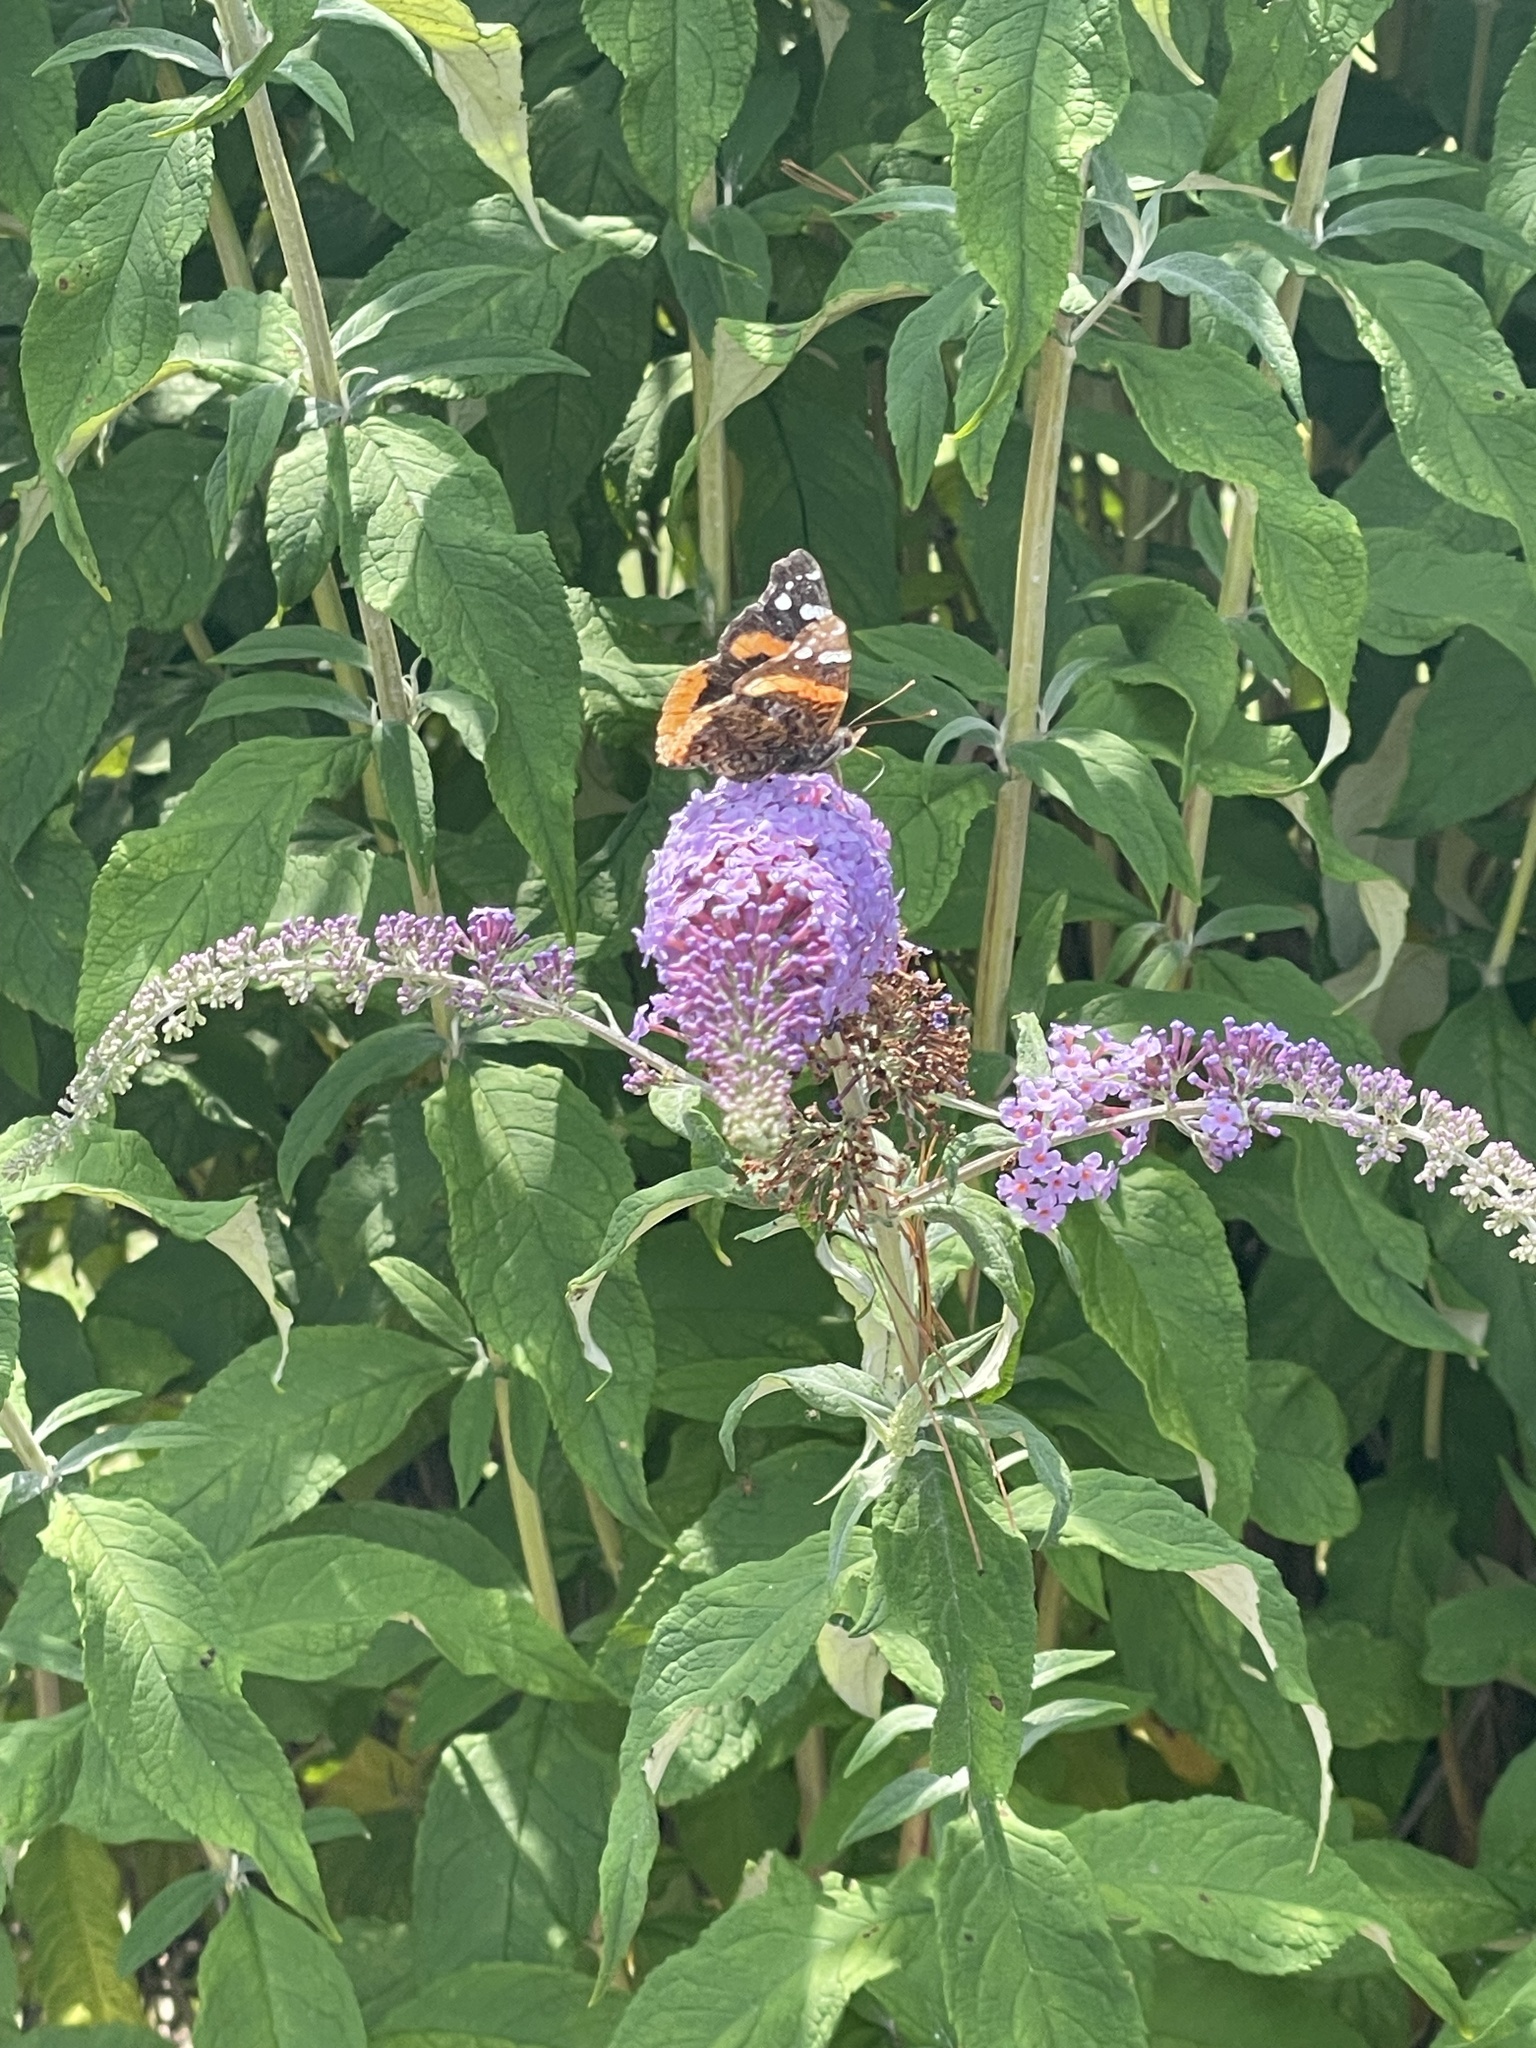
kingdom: Animalia
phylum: Arthropoda
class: Insecta
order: Lepidoptera
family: Nymphalidae
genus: Vanessa
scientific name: Vanessa atalanta
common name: Red admiral
